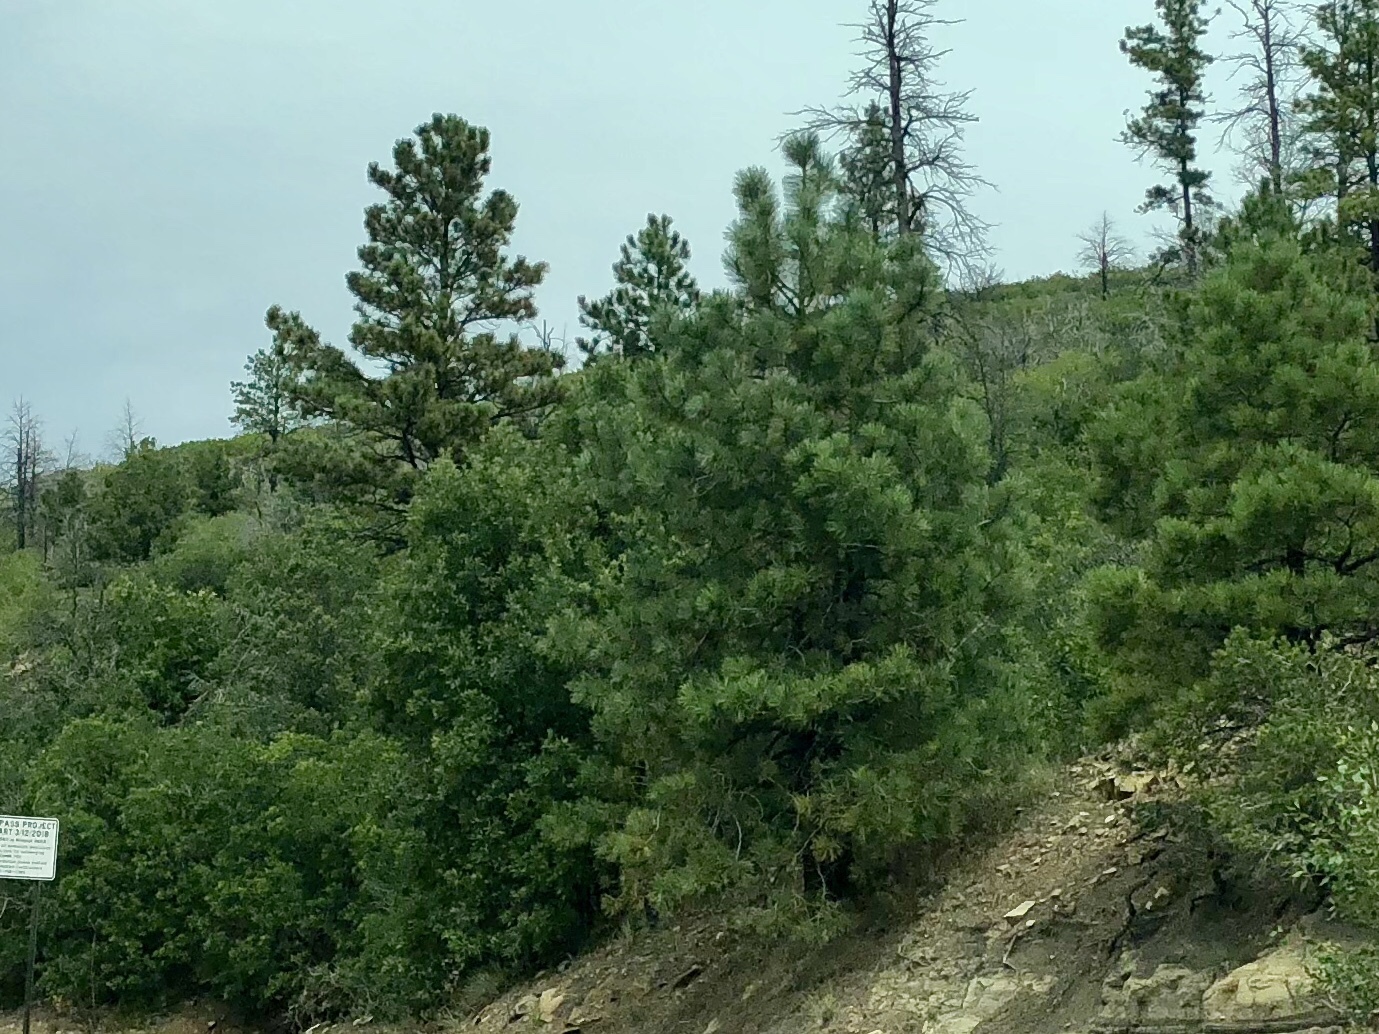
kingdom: Plantae
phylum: Tracheophyta
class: Pinopsida
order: Pinales
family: Pinaceae
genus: Pinus
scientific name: Pinus ponderosa
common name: Western yellow-pine
